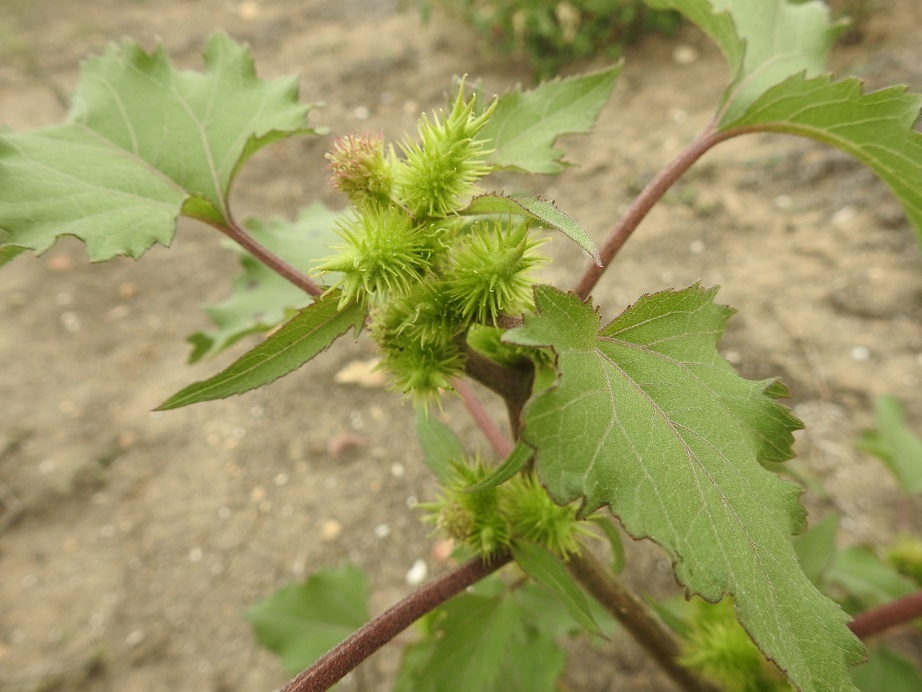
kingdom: Plantae
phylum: Tracheophyta
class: Magnoliopsida
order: Asterales
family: Asteraceae
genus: Xanthium
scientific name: Xanthium strumarium
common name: Rough cocklebur
